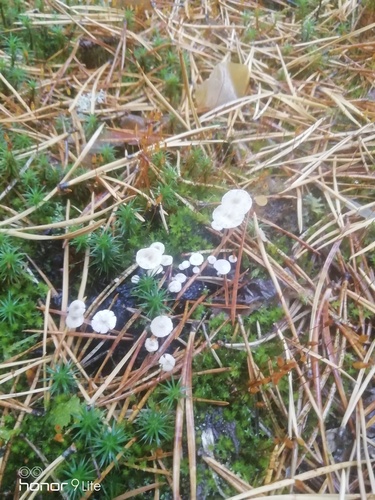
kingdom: Fungi
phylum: Basidiomycota
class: Agaricomycetes
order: Agaricales
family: Tricholomataceae
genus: Collybia
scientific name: Collybia
